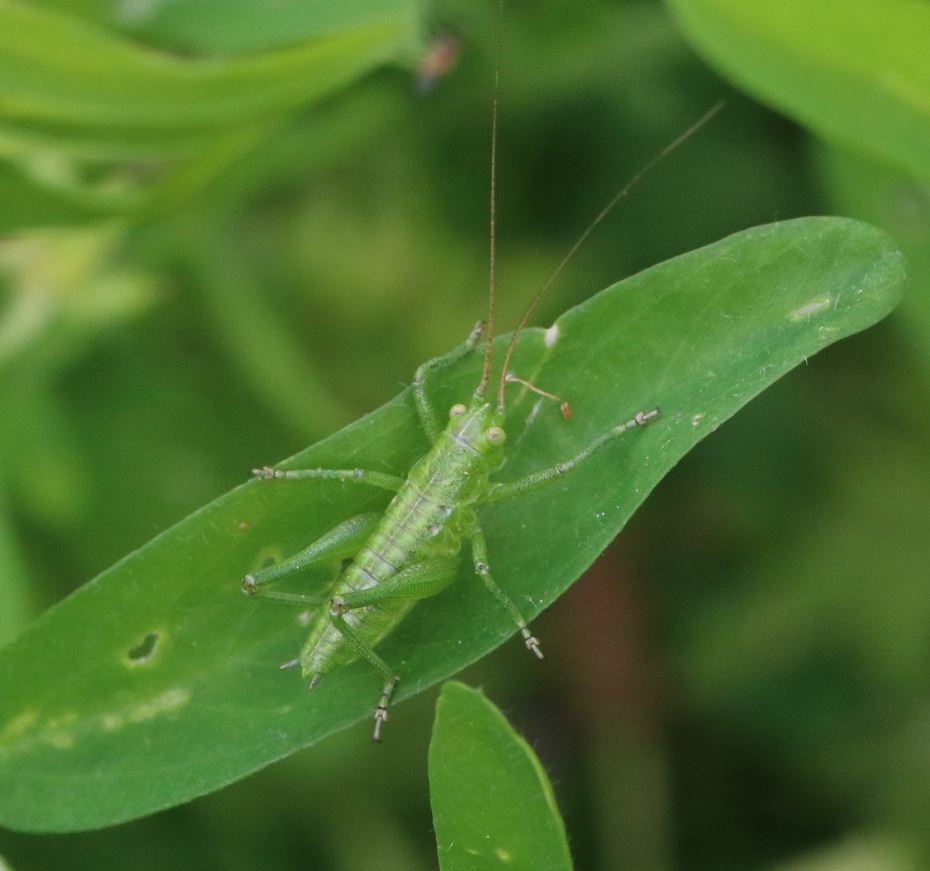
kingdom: Animalia
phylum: Arthropoda
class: Insecta
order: Orthoptera
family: Tettigoniidae
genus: Tettigonia
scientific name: Tettigonia viridissima
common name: Great green bush-cricket
